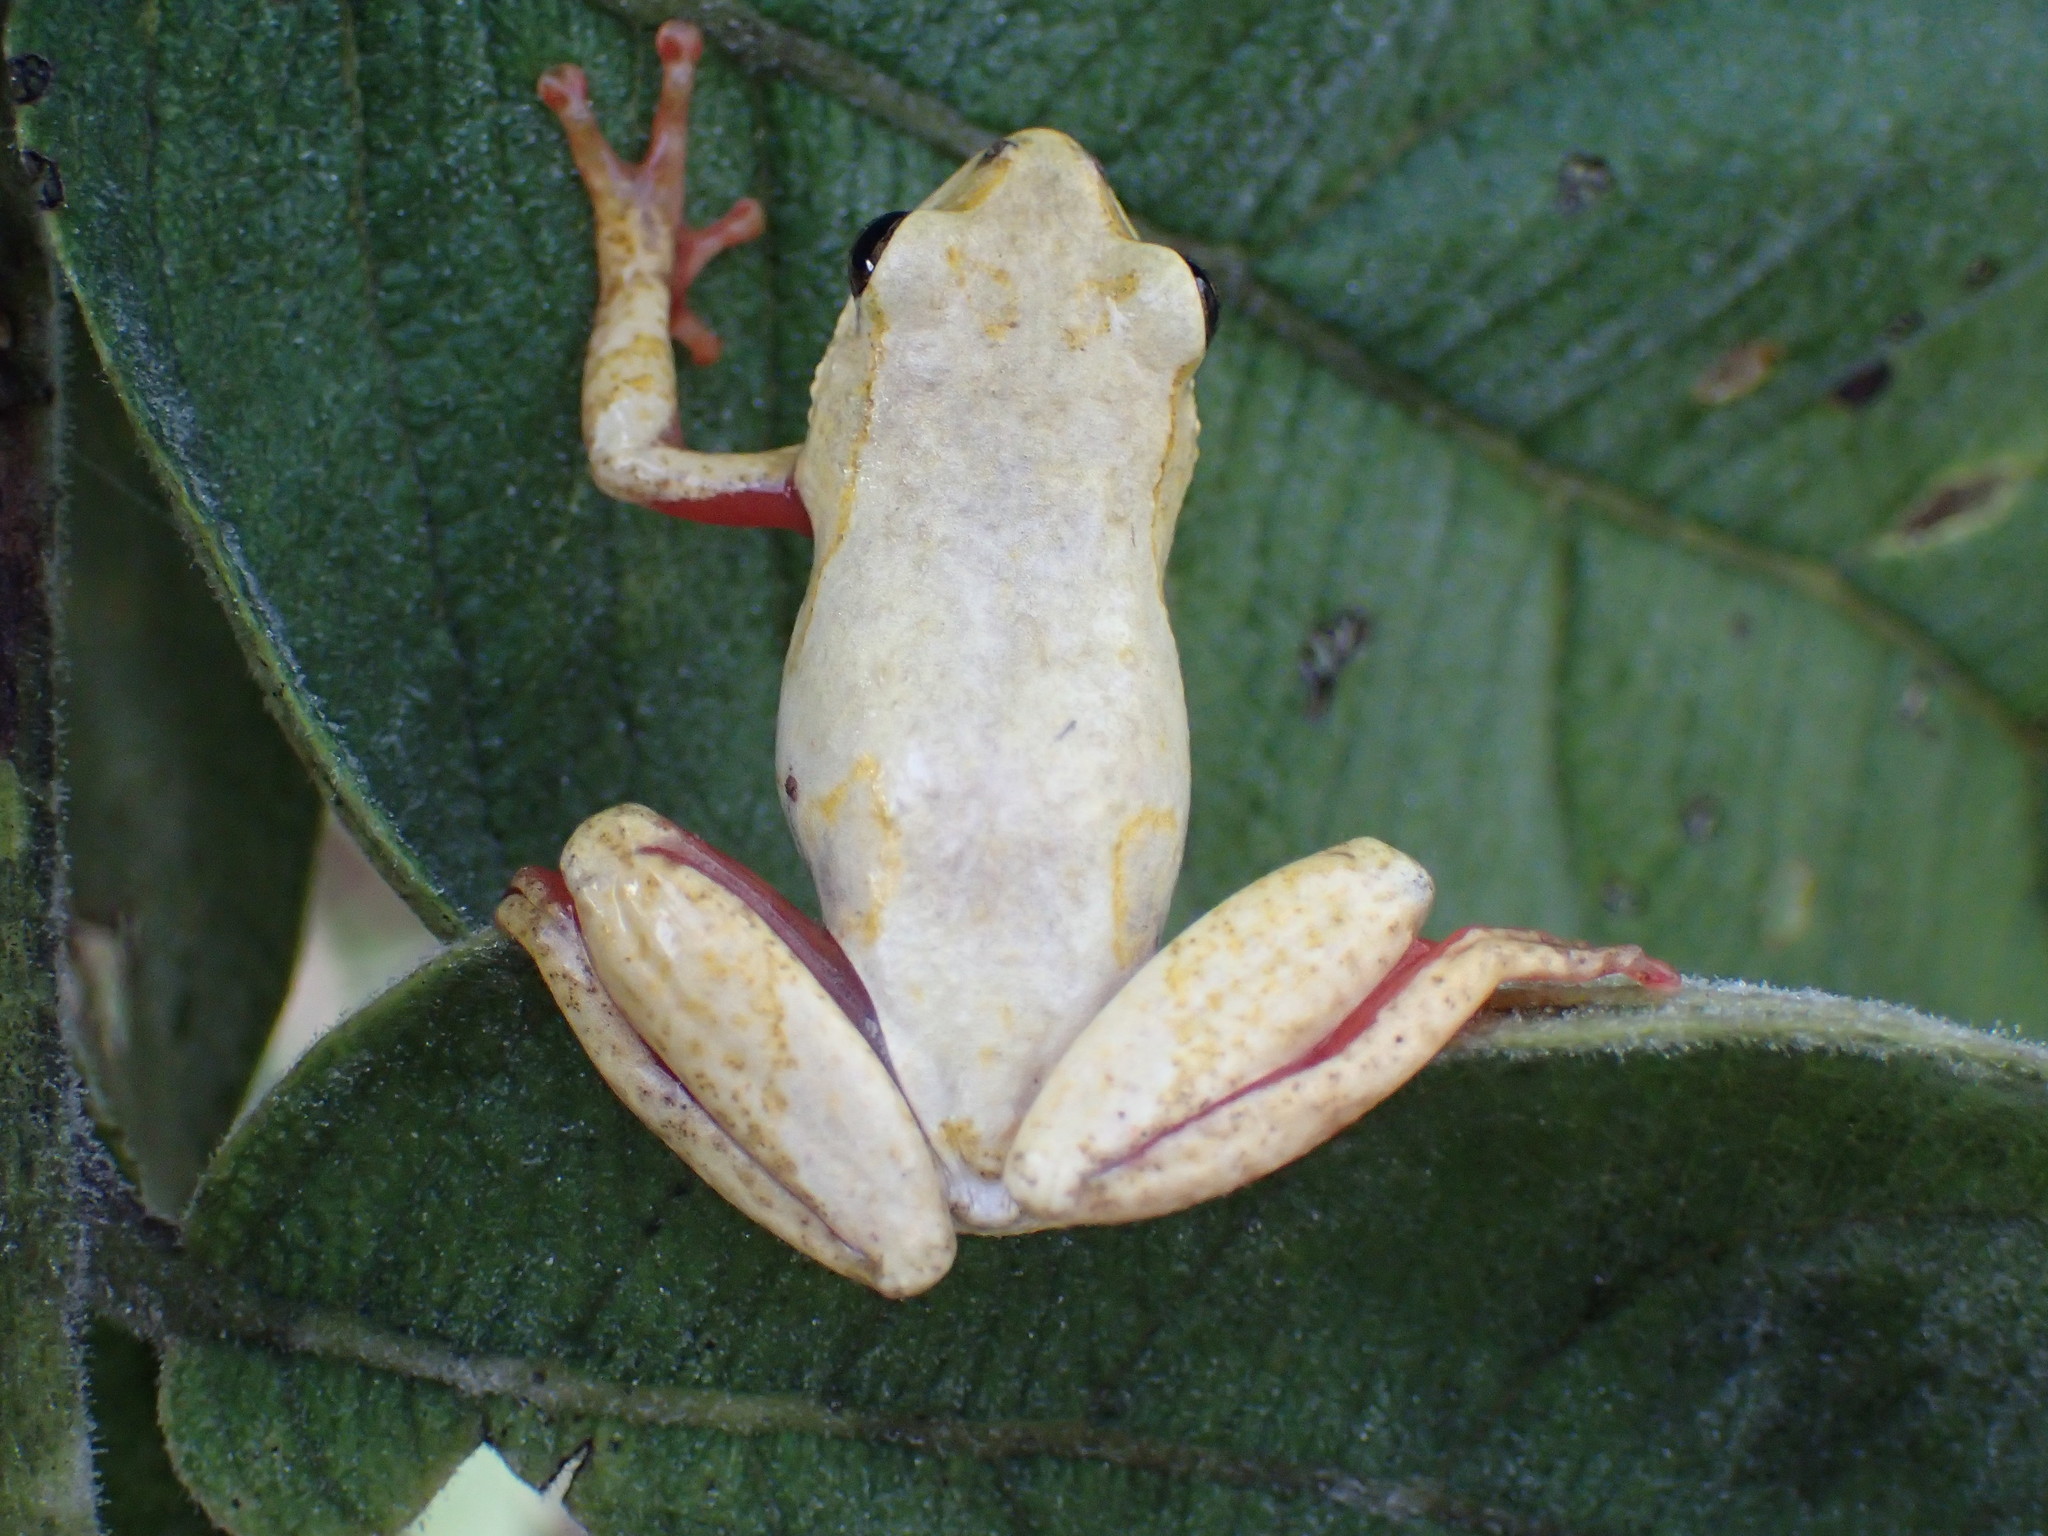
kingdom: Animalia
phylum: Chordata
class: Amphibia
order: Anura
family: Hyperoliidae
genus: Hyperolius
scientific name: Hyperolius viridiflavus
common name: Common reed frog
